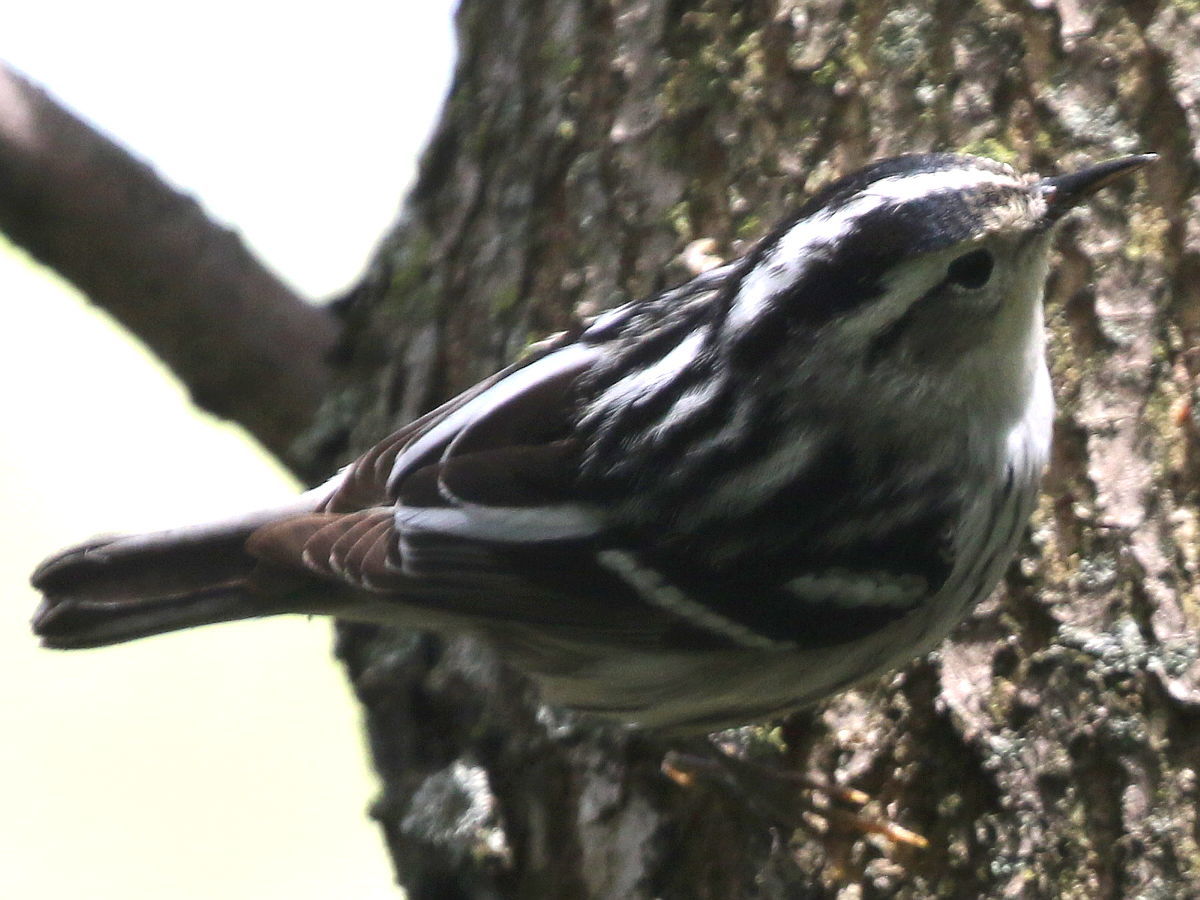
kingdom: Animalia
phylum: Chordata
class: Aves
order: Passeriformes
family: Parulidae
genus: Mniotilta
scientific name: Mniotilta varia
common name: Black-and-white warbler
